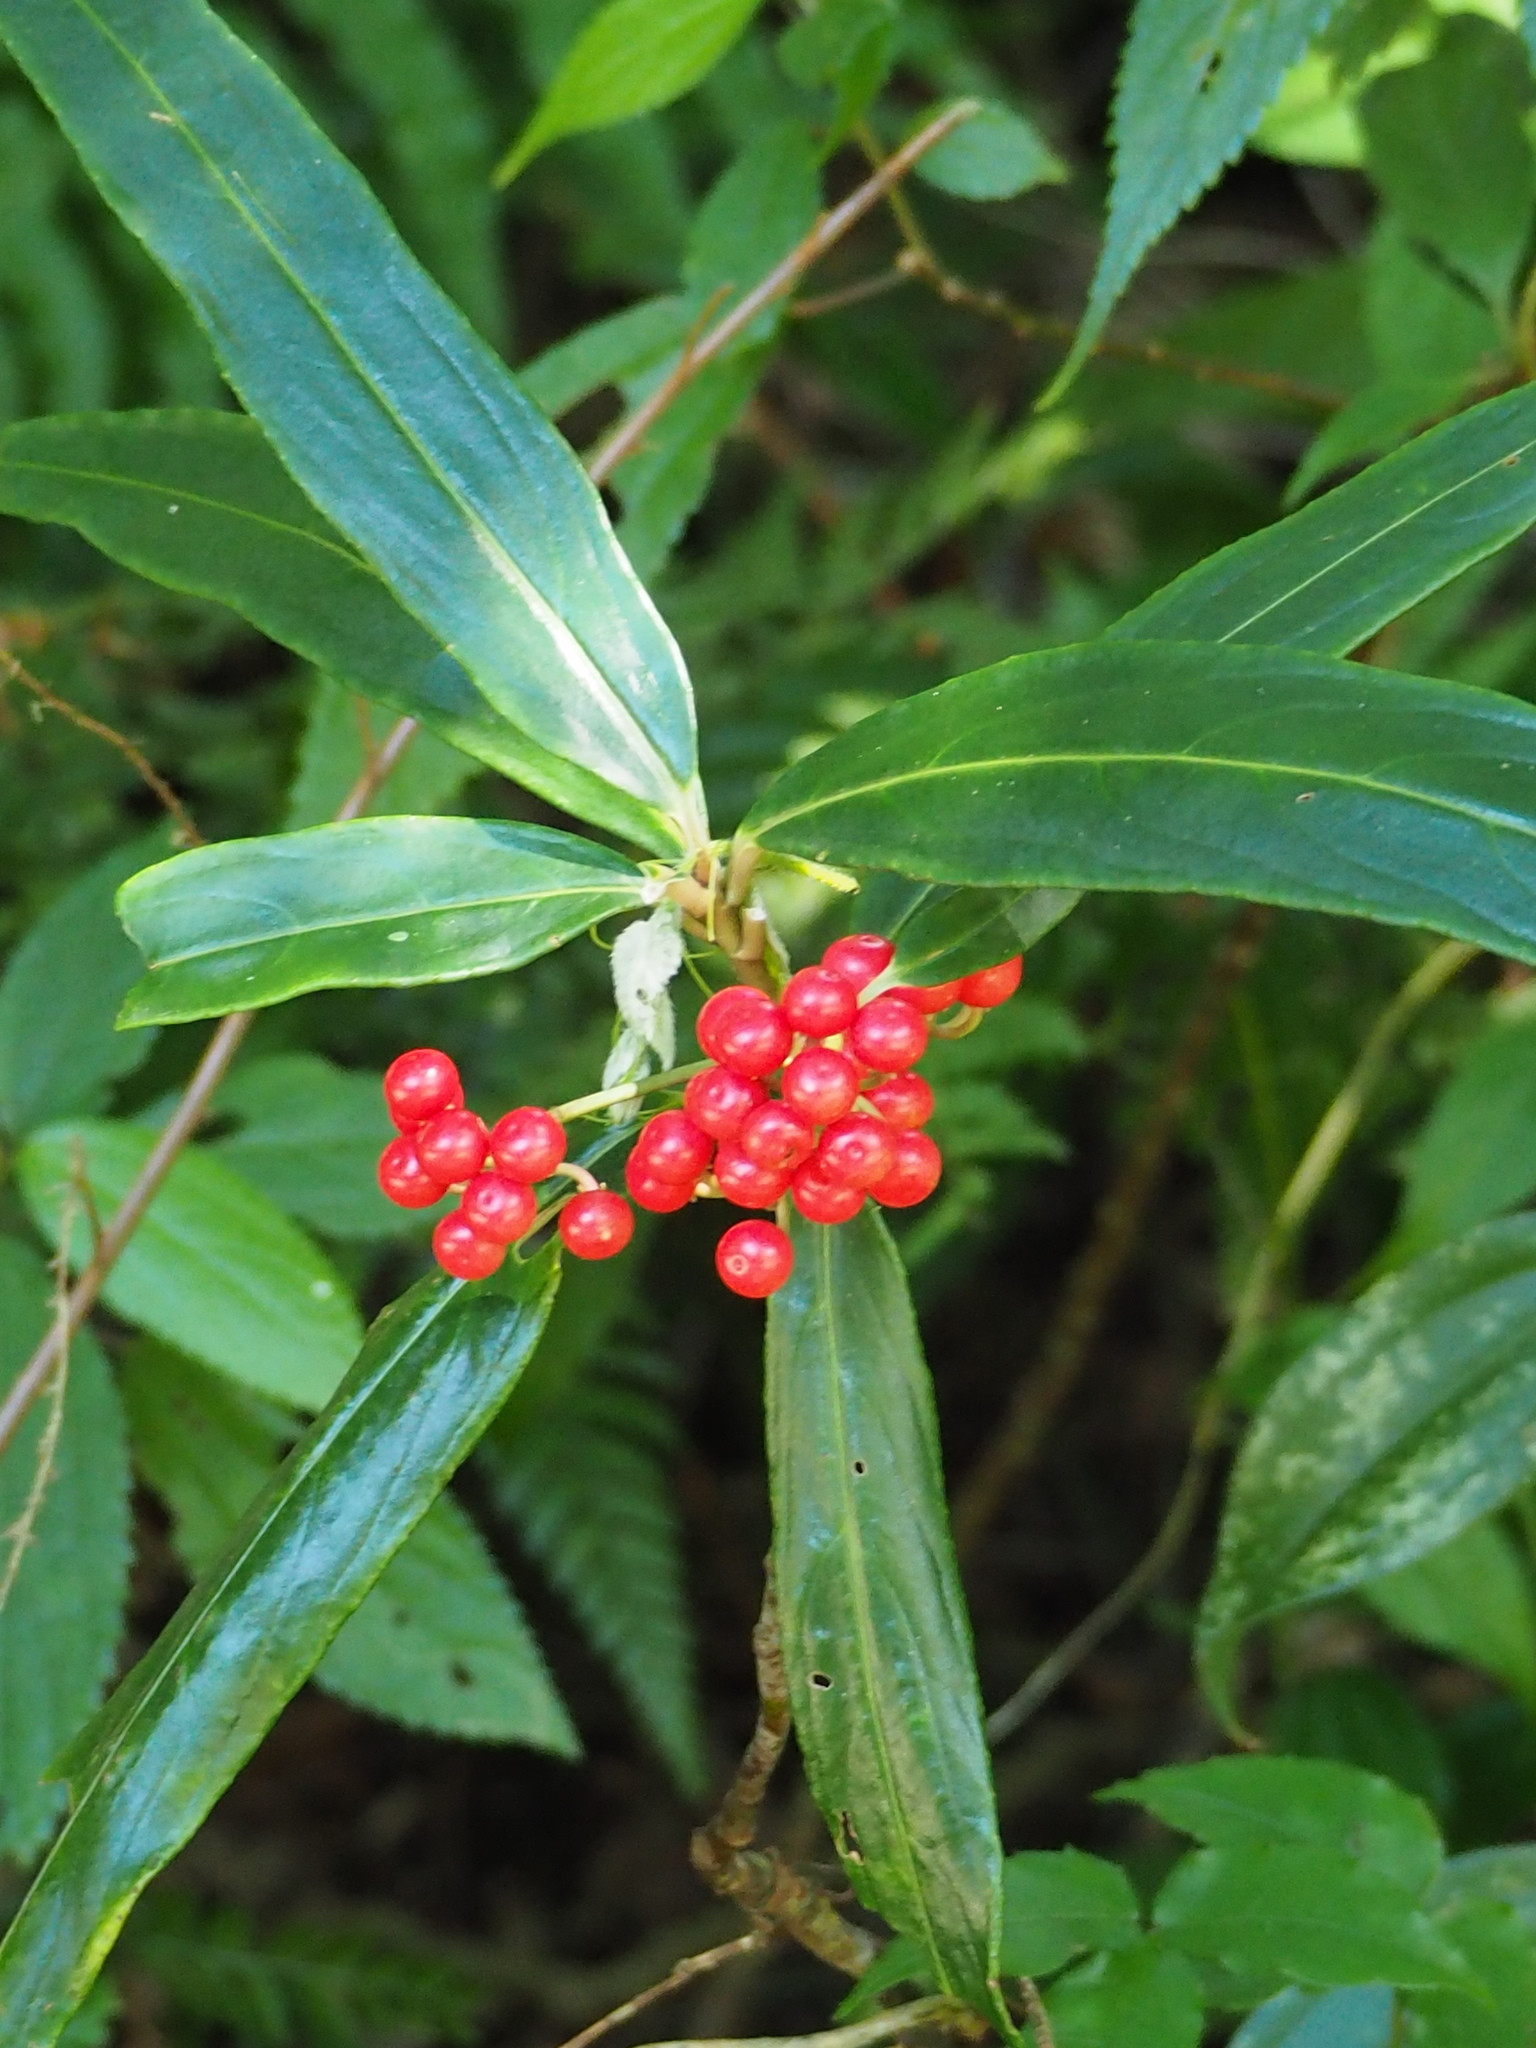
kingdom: Plantae
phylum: Tracheophyta
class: Magnoliopsida
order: Ericales
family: Primulaceae
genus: Ardisia
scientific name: Ardisia crispa
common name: Japanese-holly
